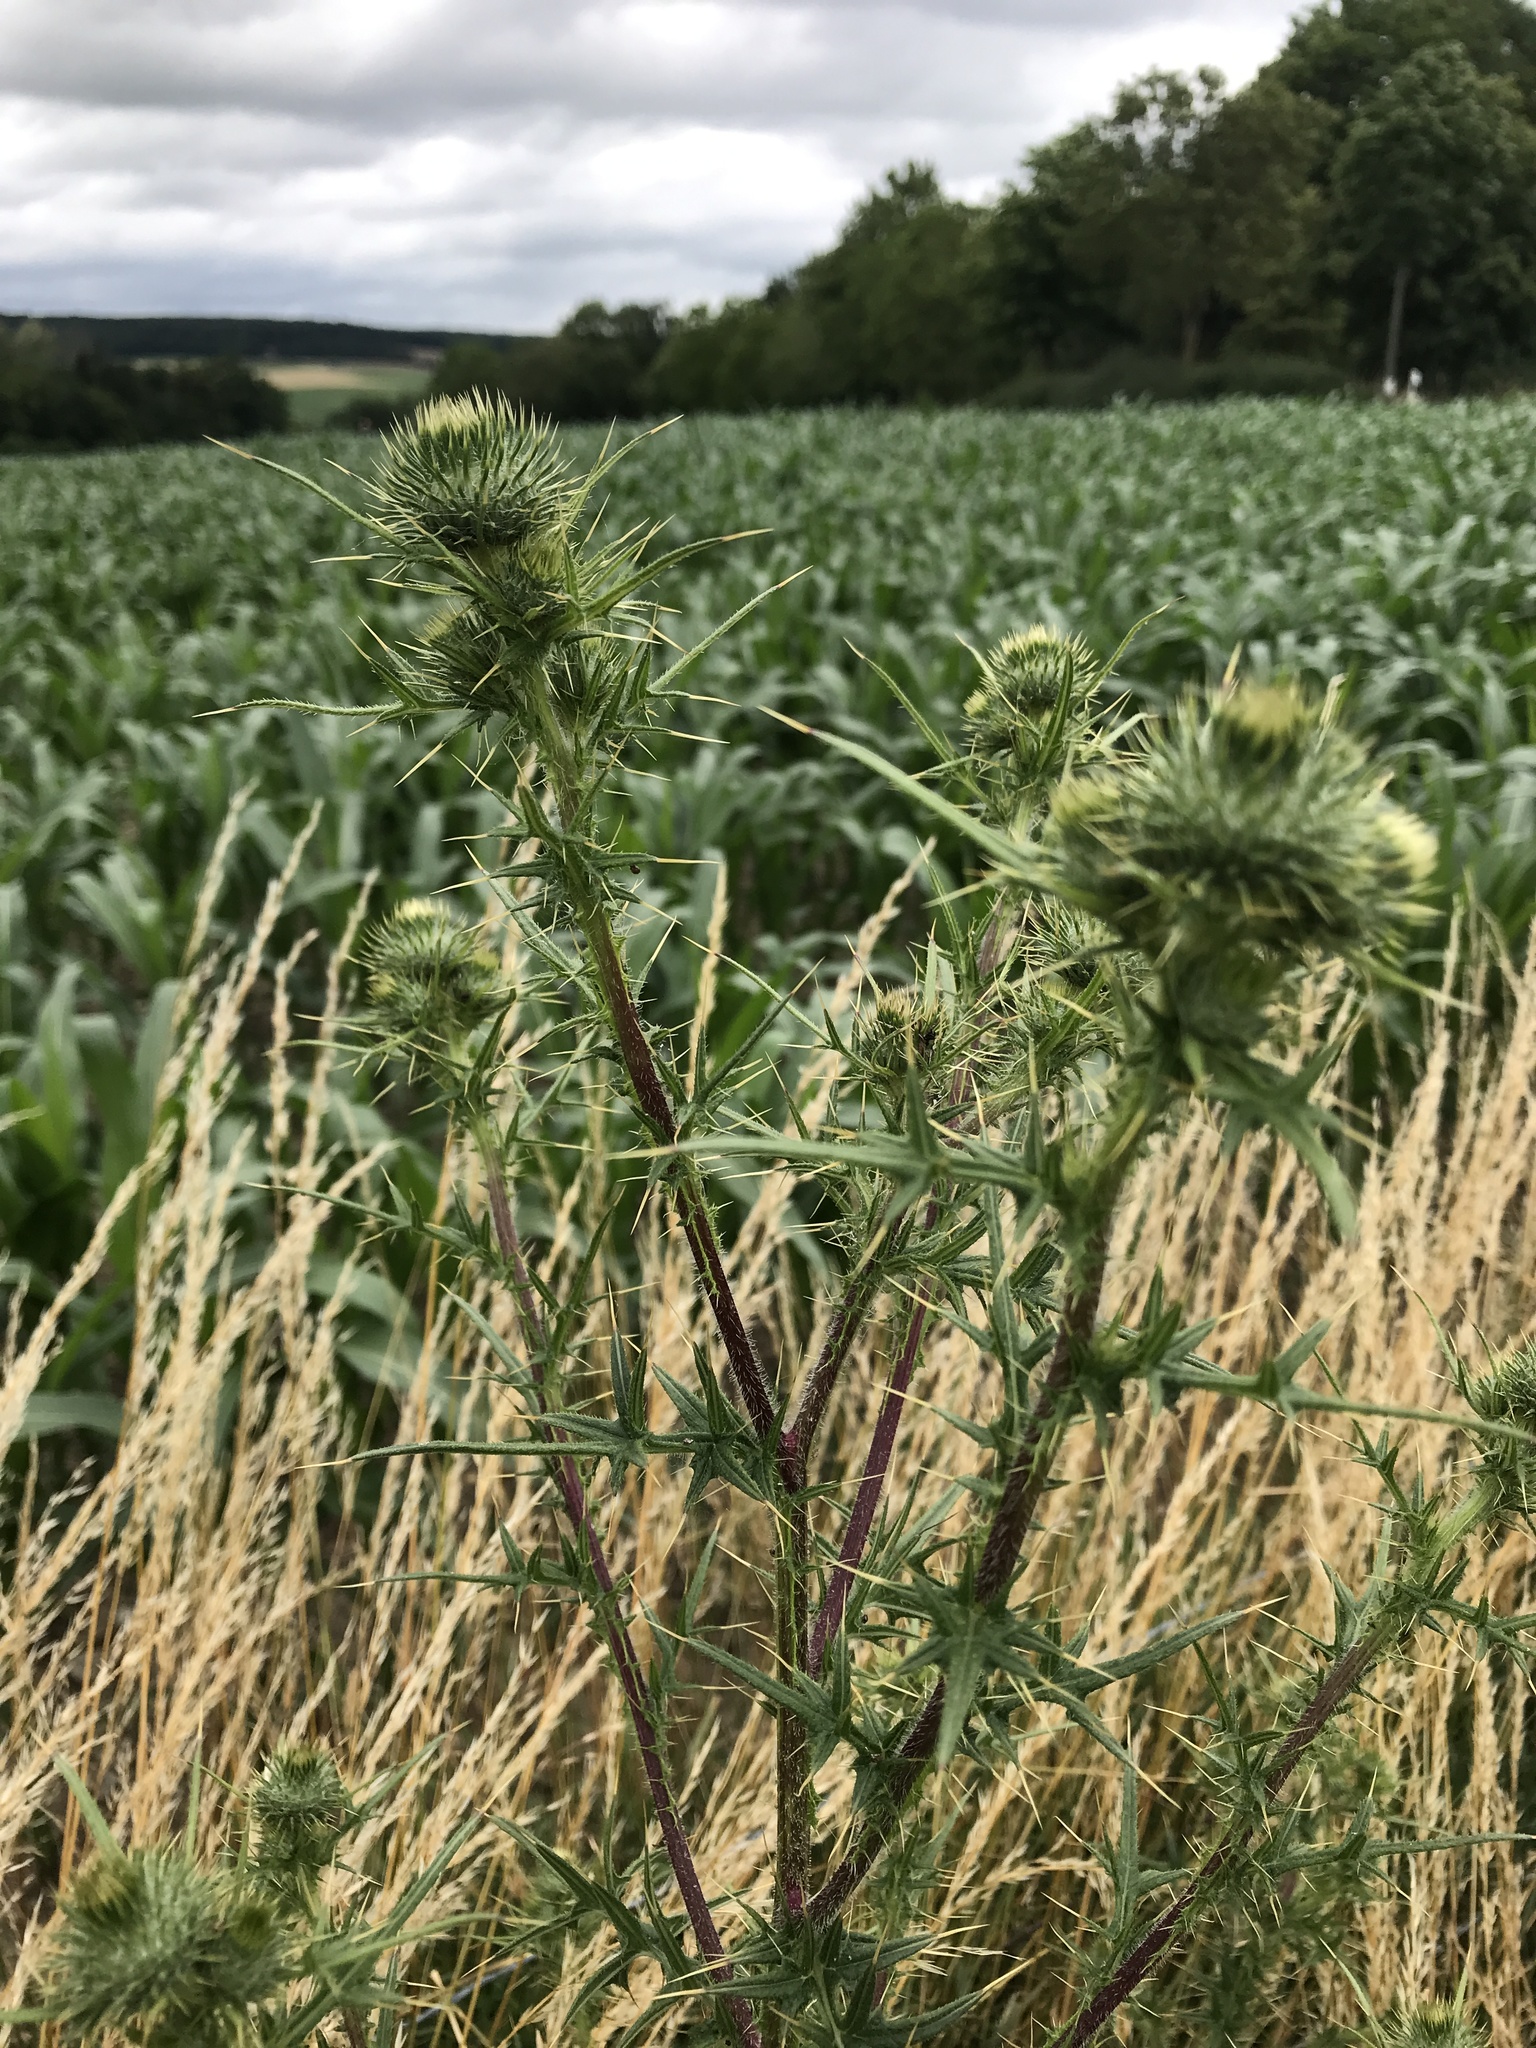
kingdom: Plantae
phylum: Tracheophyta
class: Magnoliopsida
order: Asterales
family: Asteraceae
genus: Cirsium
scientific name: Cirsium vulgare
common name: Bull thistle
